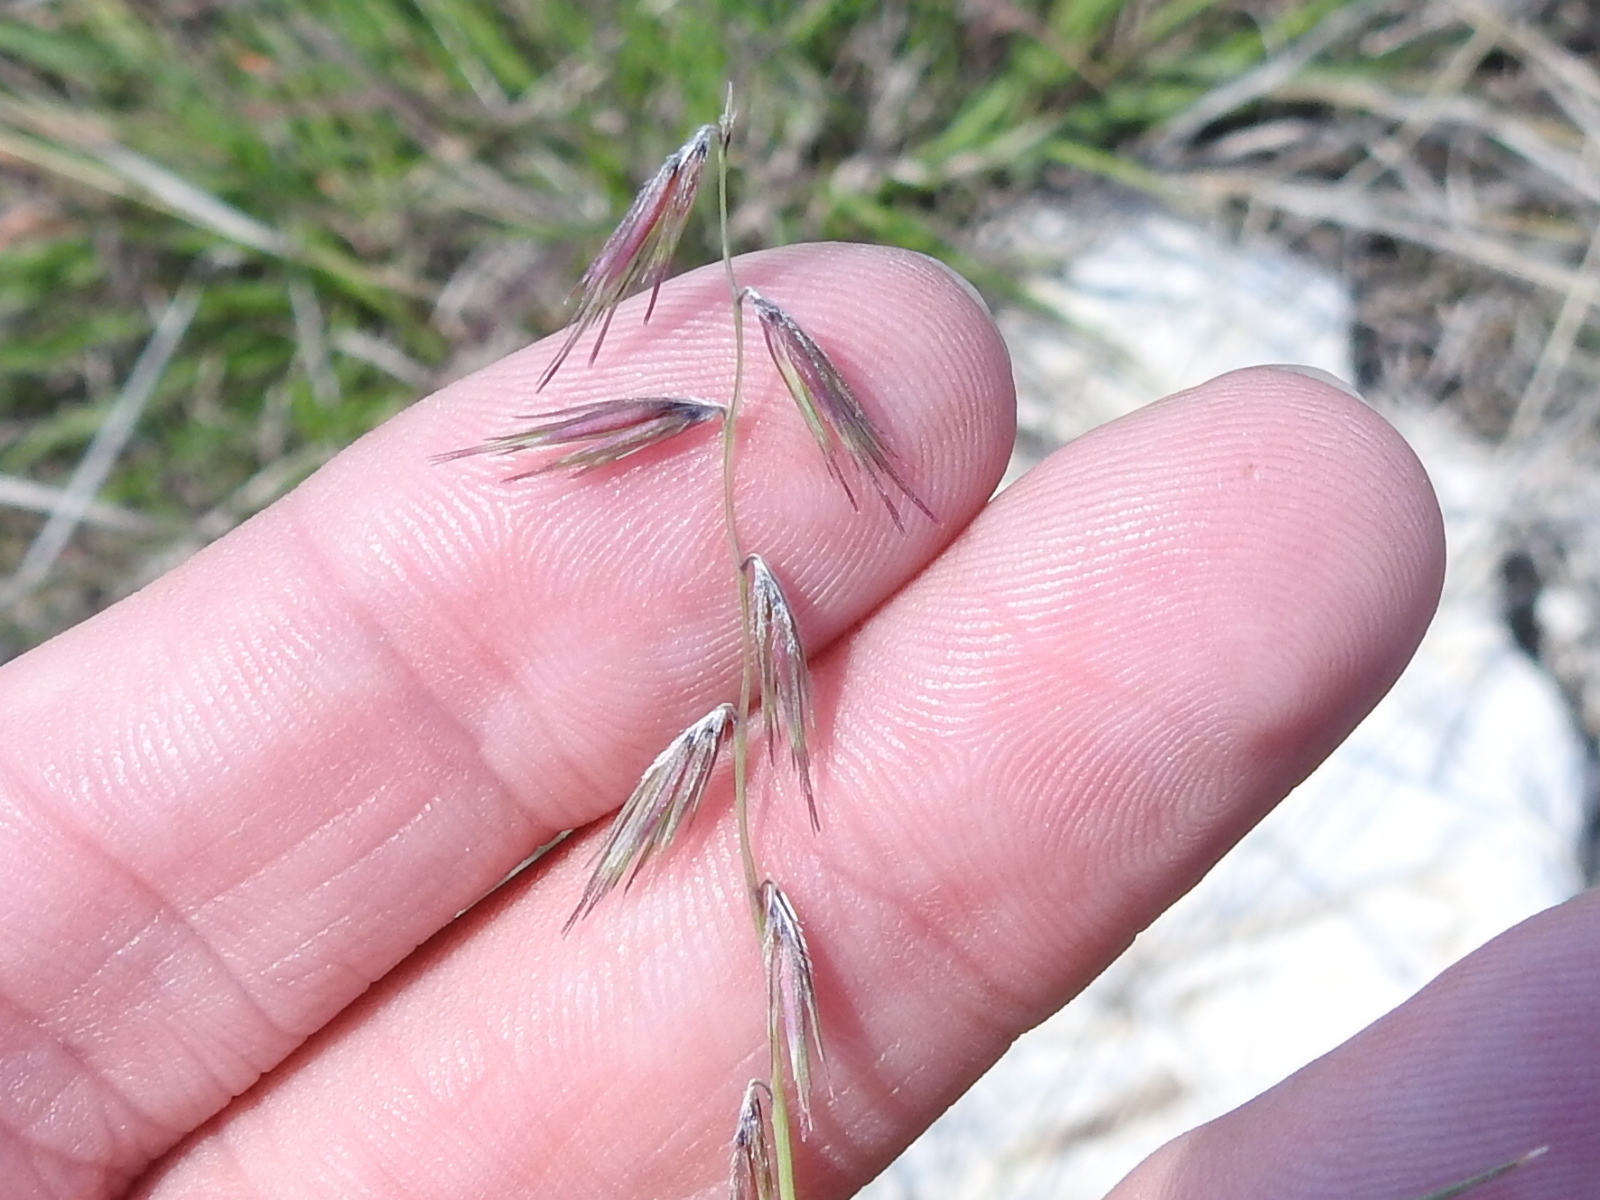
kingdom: Plantae
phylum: Tracheophyta
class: Liliopsida
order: Poales
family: Poaceae
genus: Bouteloua
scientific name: Bouteloua rigidiseta
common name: Texas grama
